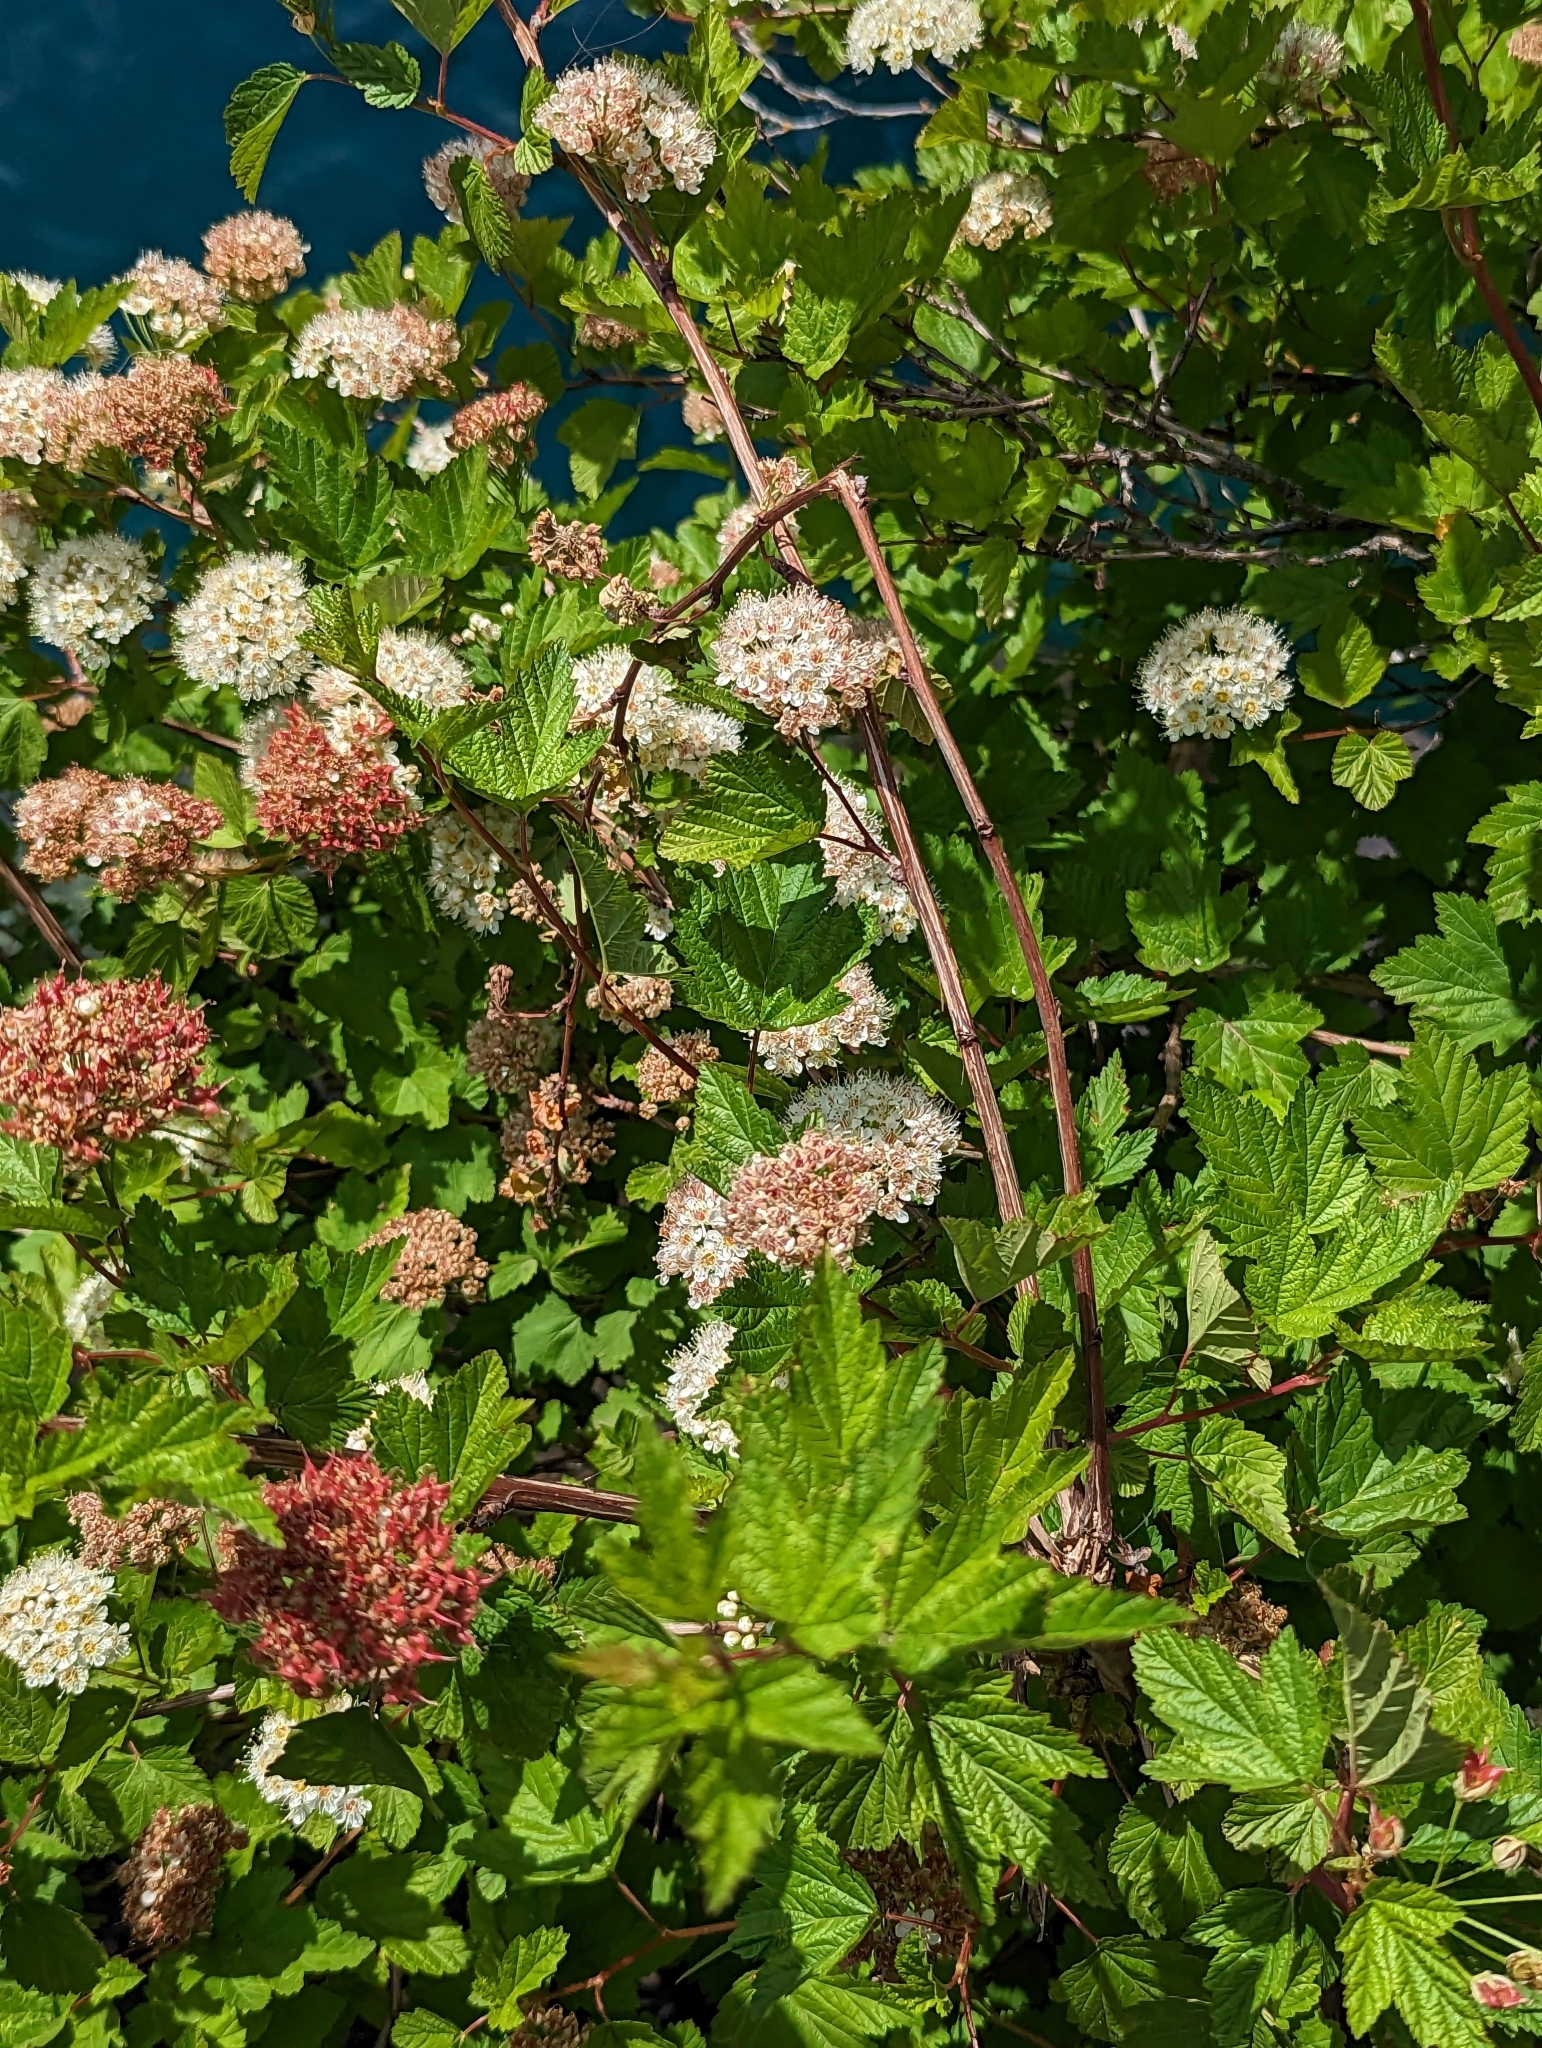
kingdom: Plantae
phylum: Tracheophyta
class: Magnoliopsida
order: Rosales
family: Rosaceae
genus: Physocarpus
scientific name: Physocarpus capitatus
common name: Pacific ninebark
